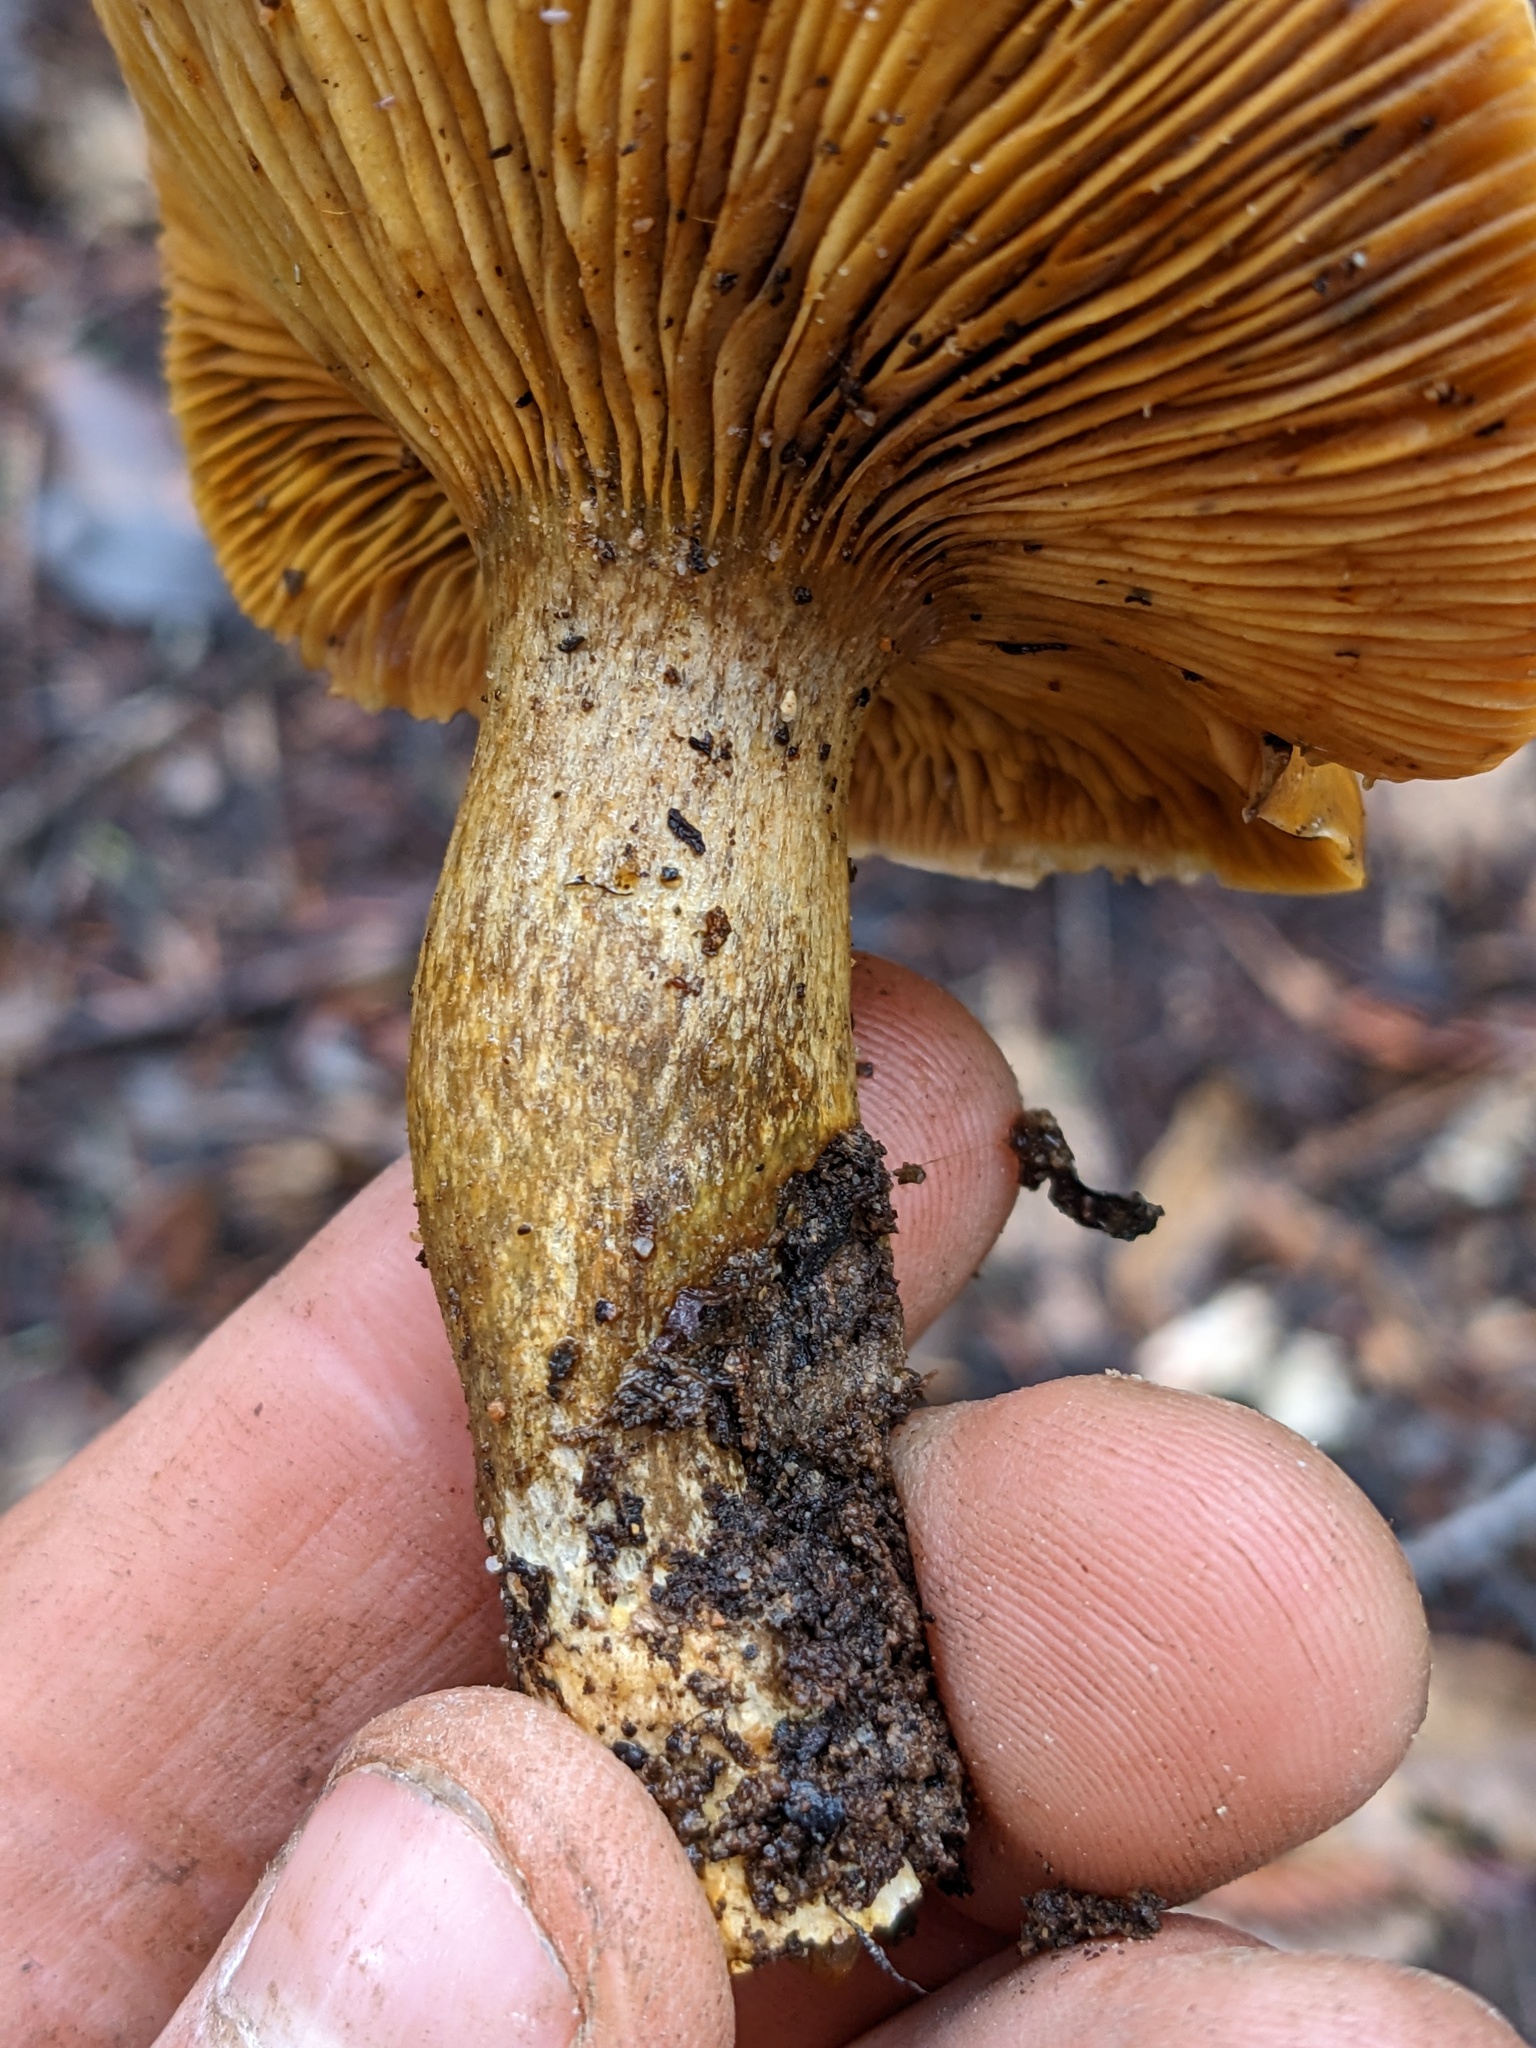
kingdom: Fungi
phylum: Basidiomycota
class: Agaricomycetes
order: Agaricales
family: Omphalotaceae
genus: Omphalotus
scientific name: Omphalotus olivascens
